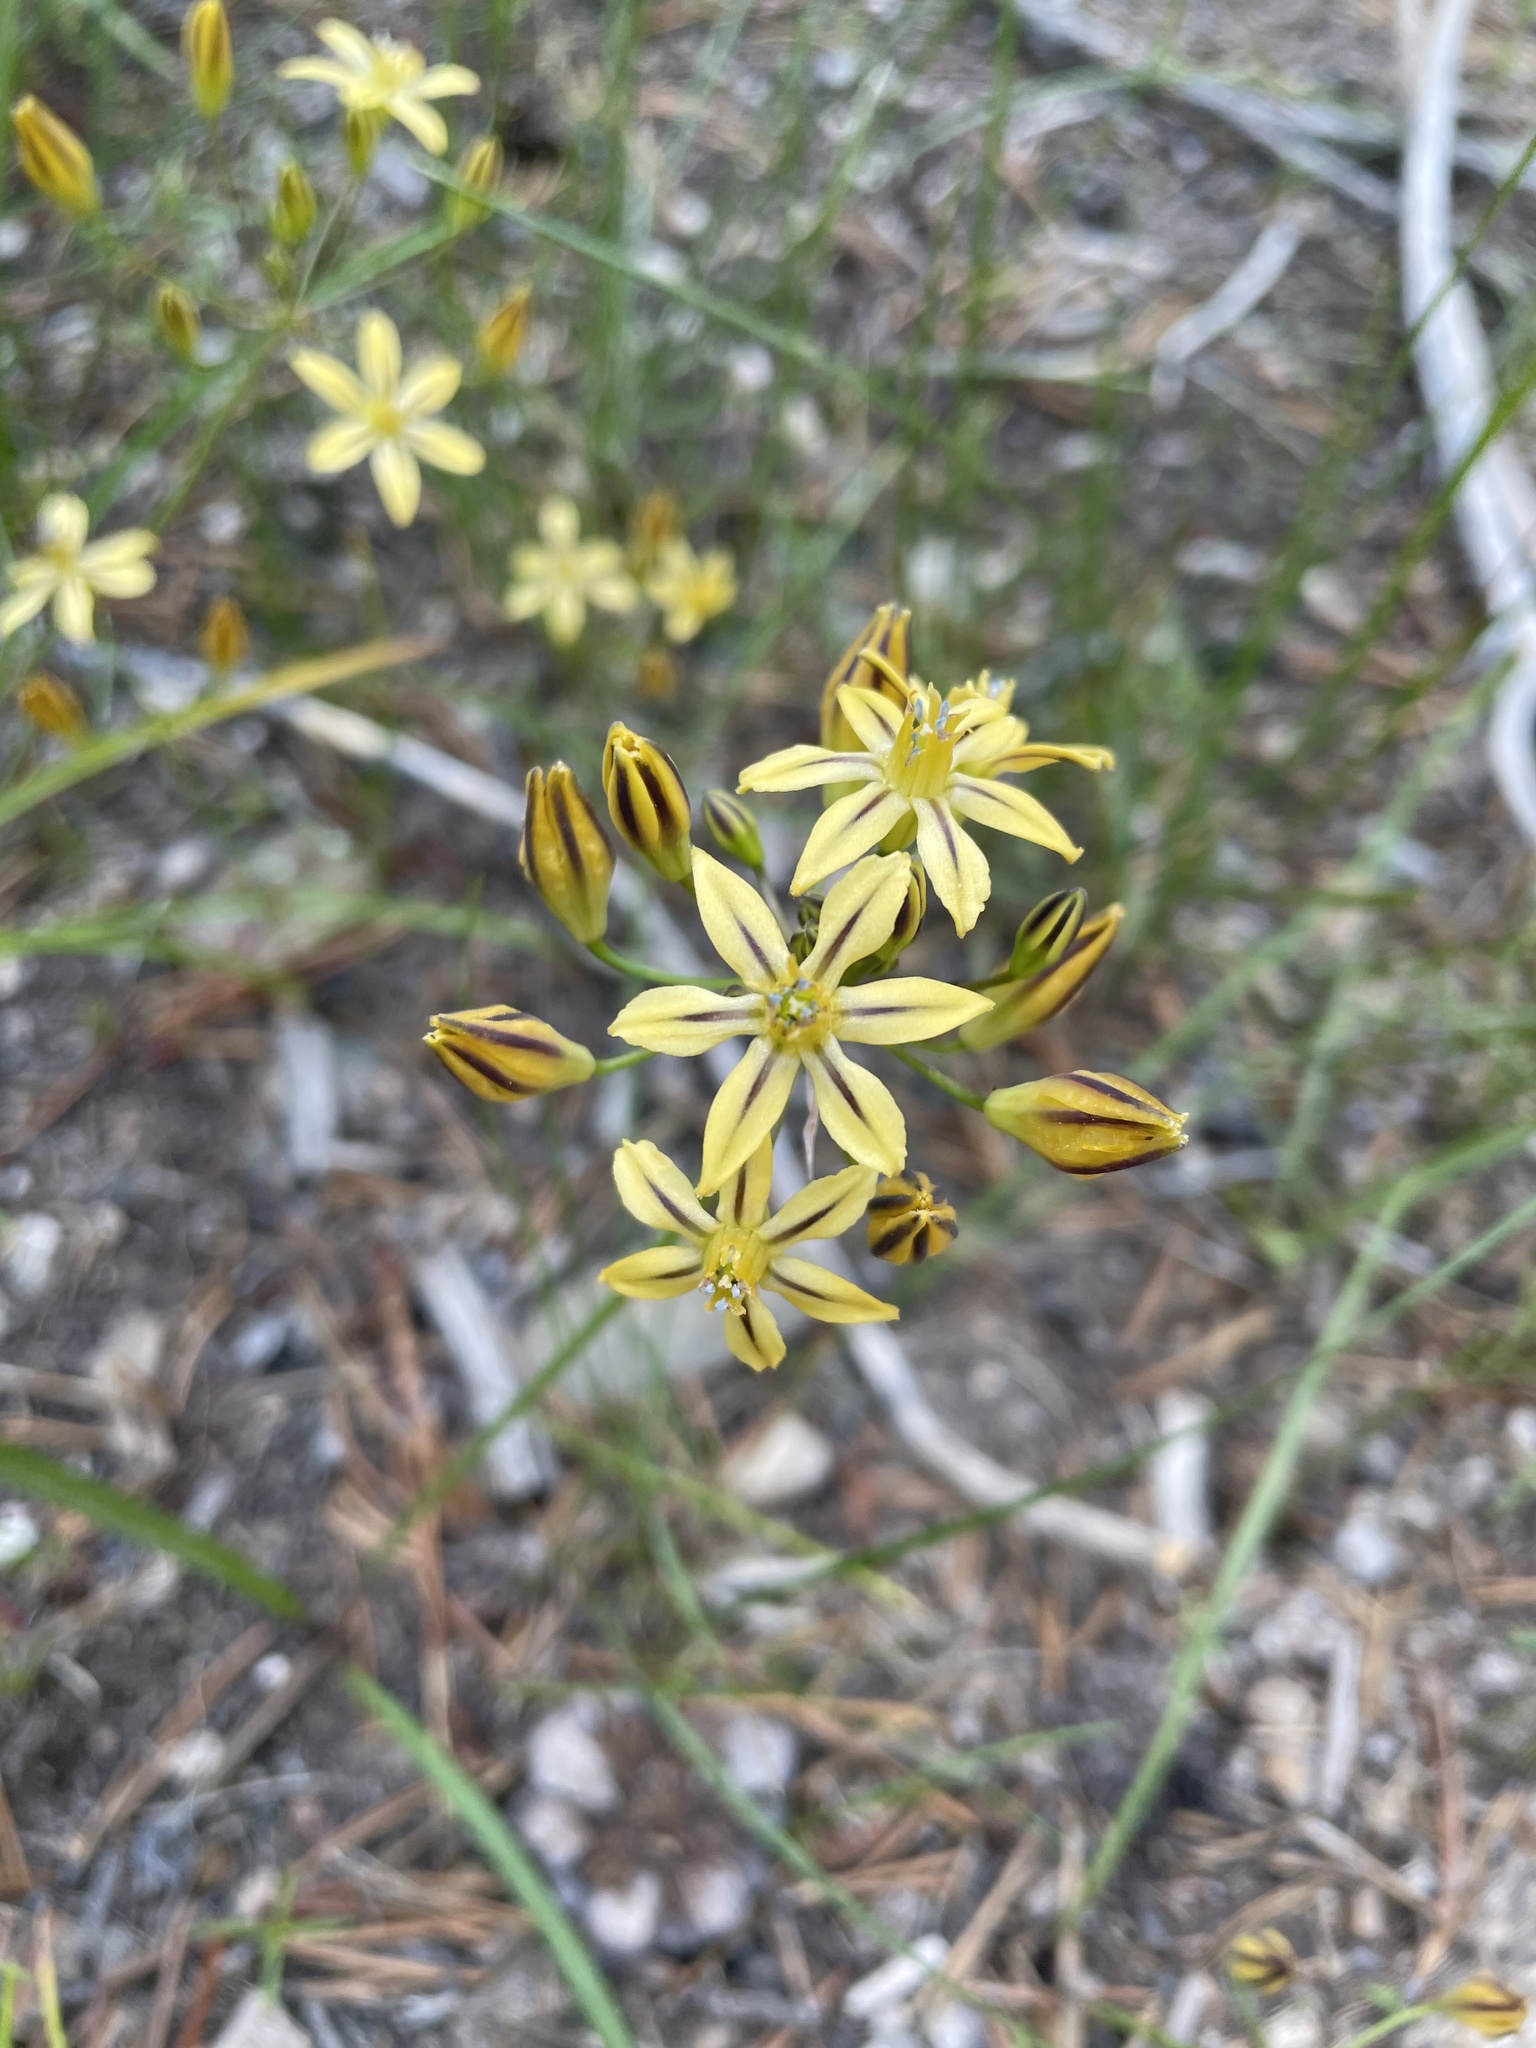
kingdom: Plantae
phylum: Tracheophyta
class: Liliopsida
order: Asparagales
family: Asparagaceae
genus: Triteleia
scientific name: Triteleia ixioides
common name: Yellow-brodiaea
